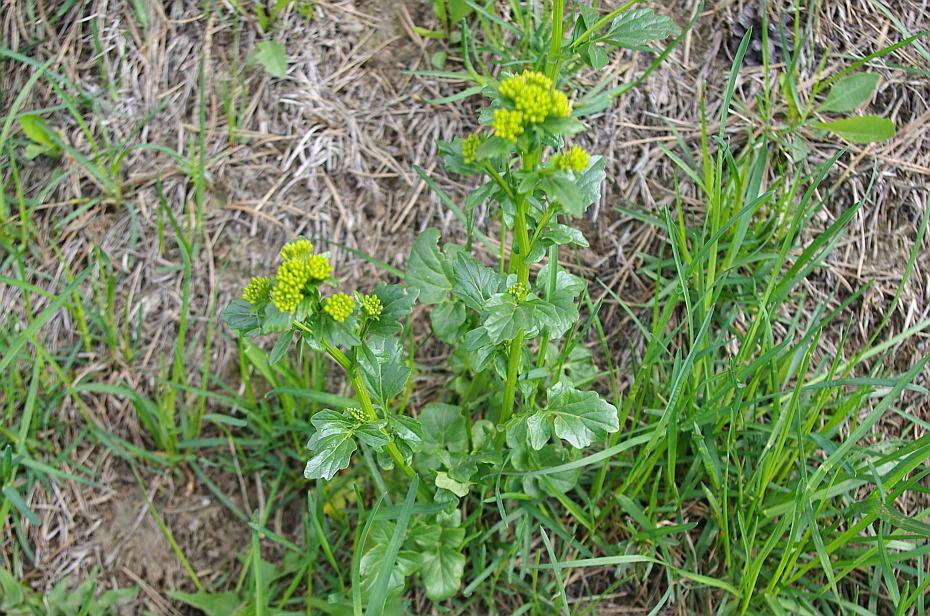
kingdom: Plantae
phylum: Tracheophyta
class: Magnoliopsida
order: Brassicales
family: Brassicaceae
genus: Barbarea
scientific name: Barbarea vulgaris
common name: Cressy-greens
